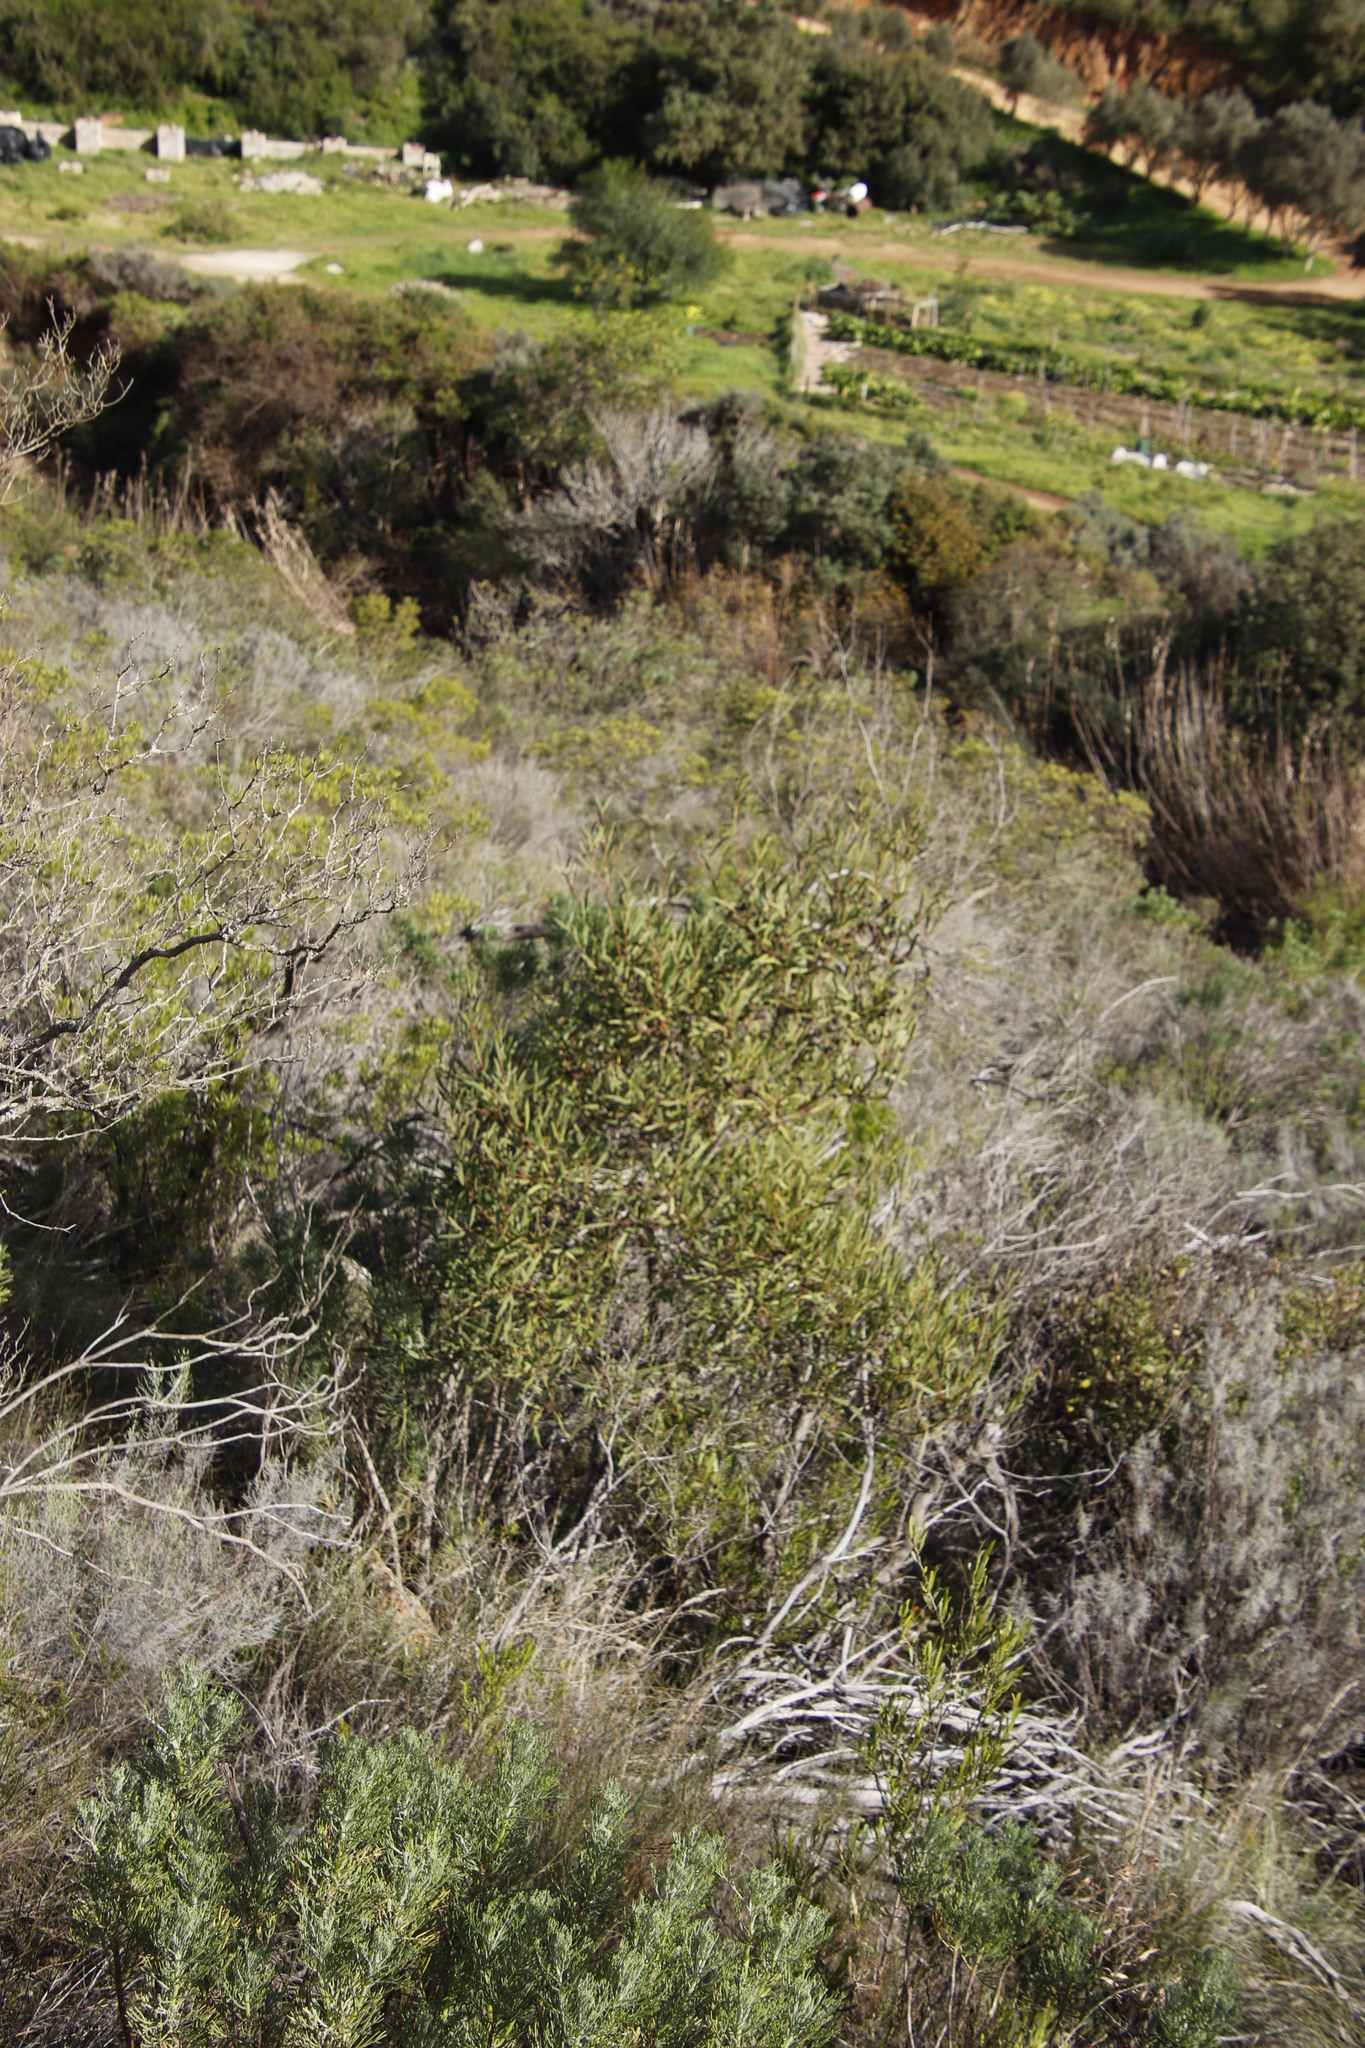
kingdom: Plantae
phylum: Tracheophyta
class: Magnoliopsida
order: Fabales
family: Fabaceae
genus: Acacia
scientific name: Acacia cyclops
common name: Coastal wattle
